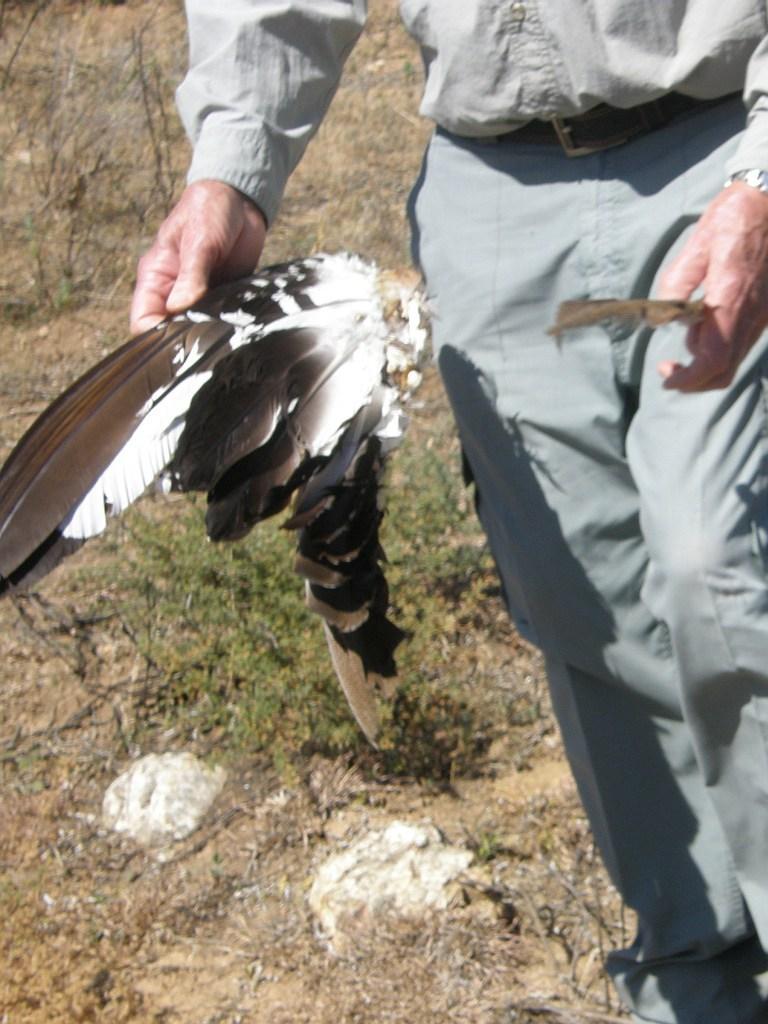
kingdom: Animalia
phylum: Chordata
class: Aves
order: Otidiformes
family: Otididae
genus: Neotis
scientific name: Neotis ludwigii
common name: Ludwig's bustard
